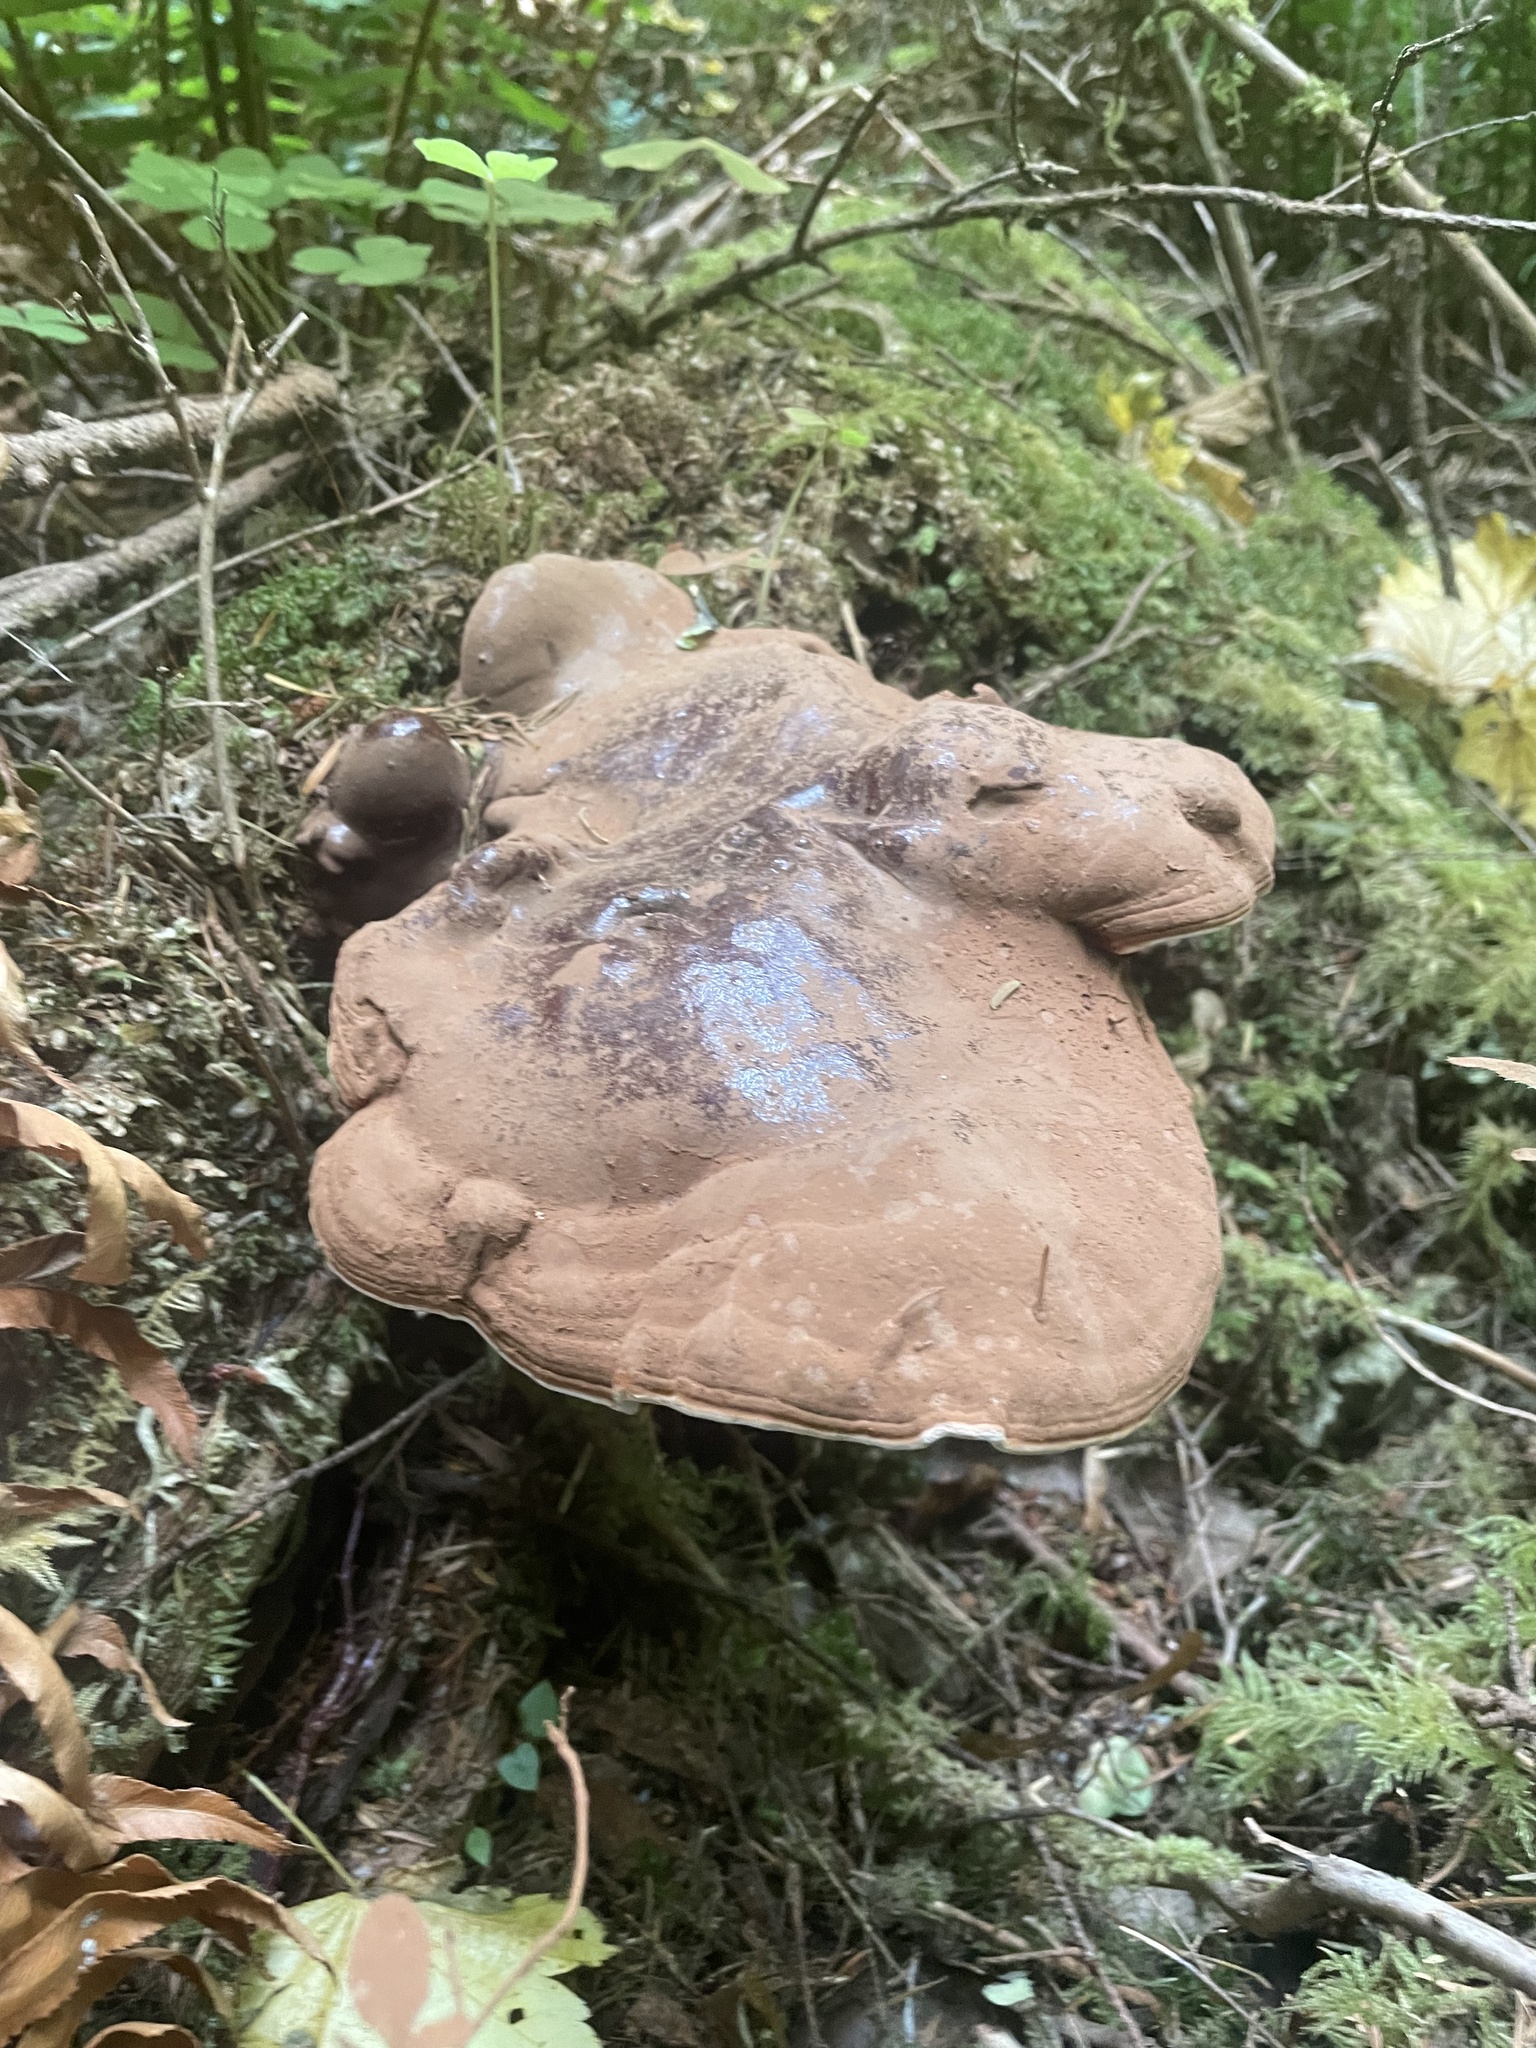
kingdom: Fungi
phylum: Basidiomycota
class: Agaricomycetes
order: Polyporales
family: Polyporaceae
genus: Ganoderma
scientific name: Ganoderma oregonense
